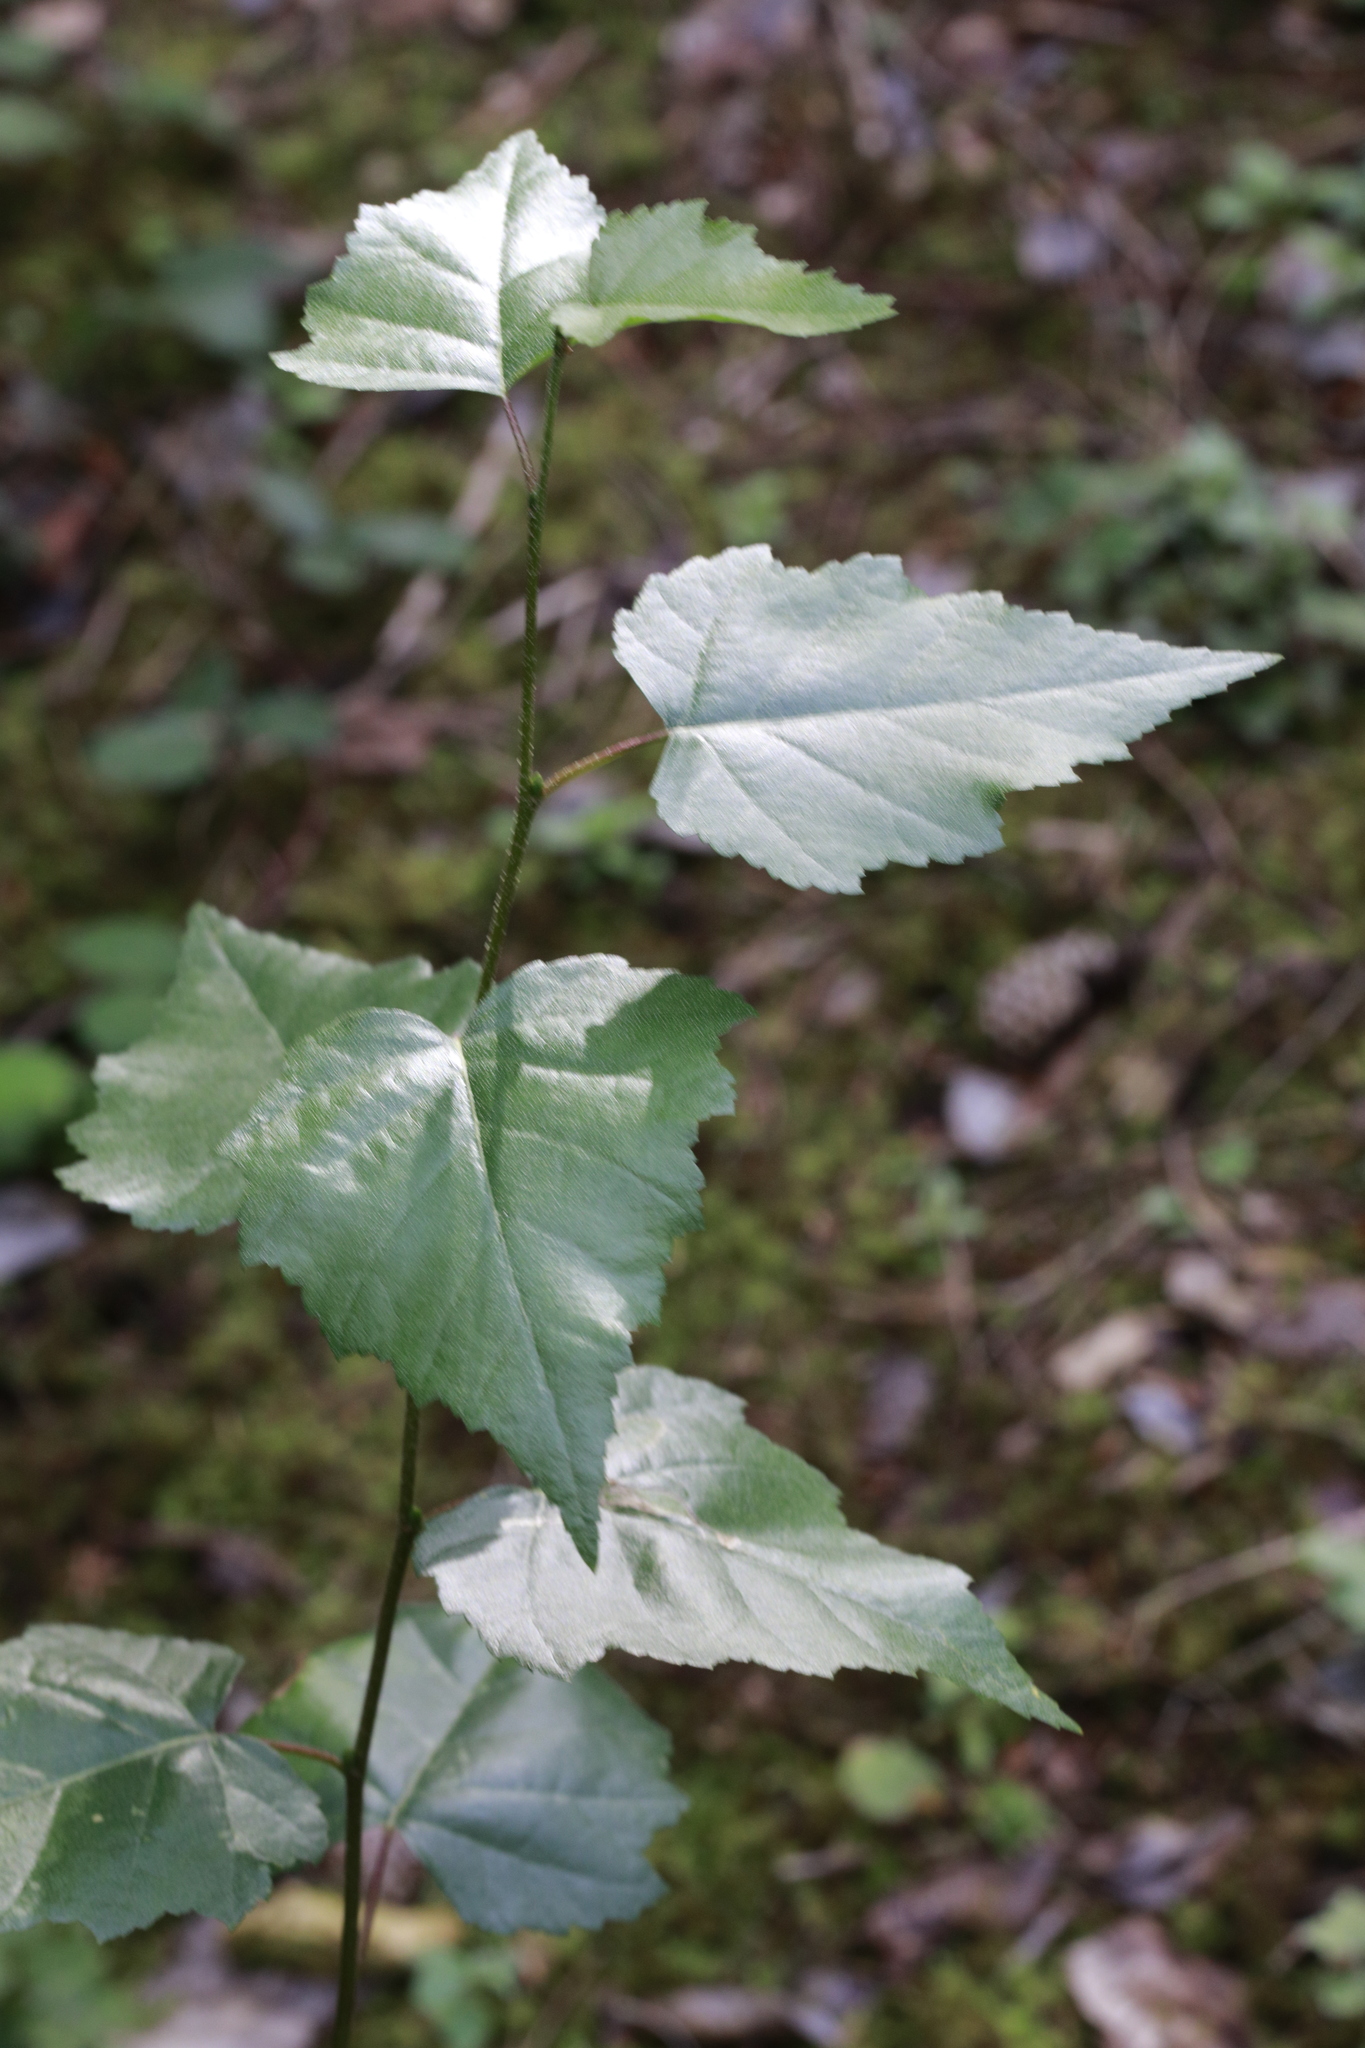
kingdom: Plantae
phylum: Tracheophyta
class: Magnoliopsida
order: Fagales
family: Betulaceae
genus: Betula
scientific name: Betula pendula
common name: Silver birch
